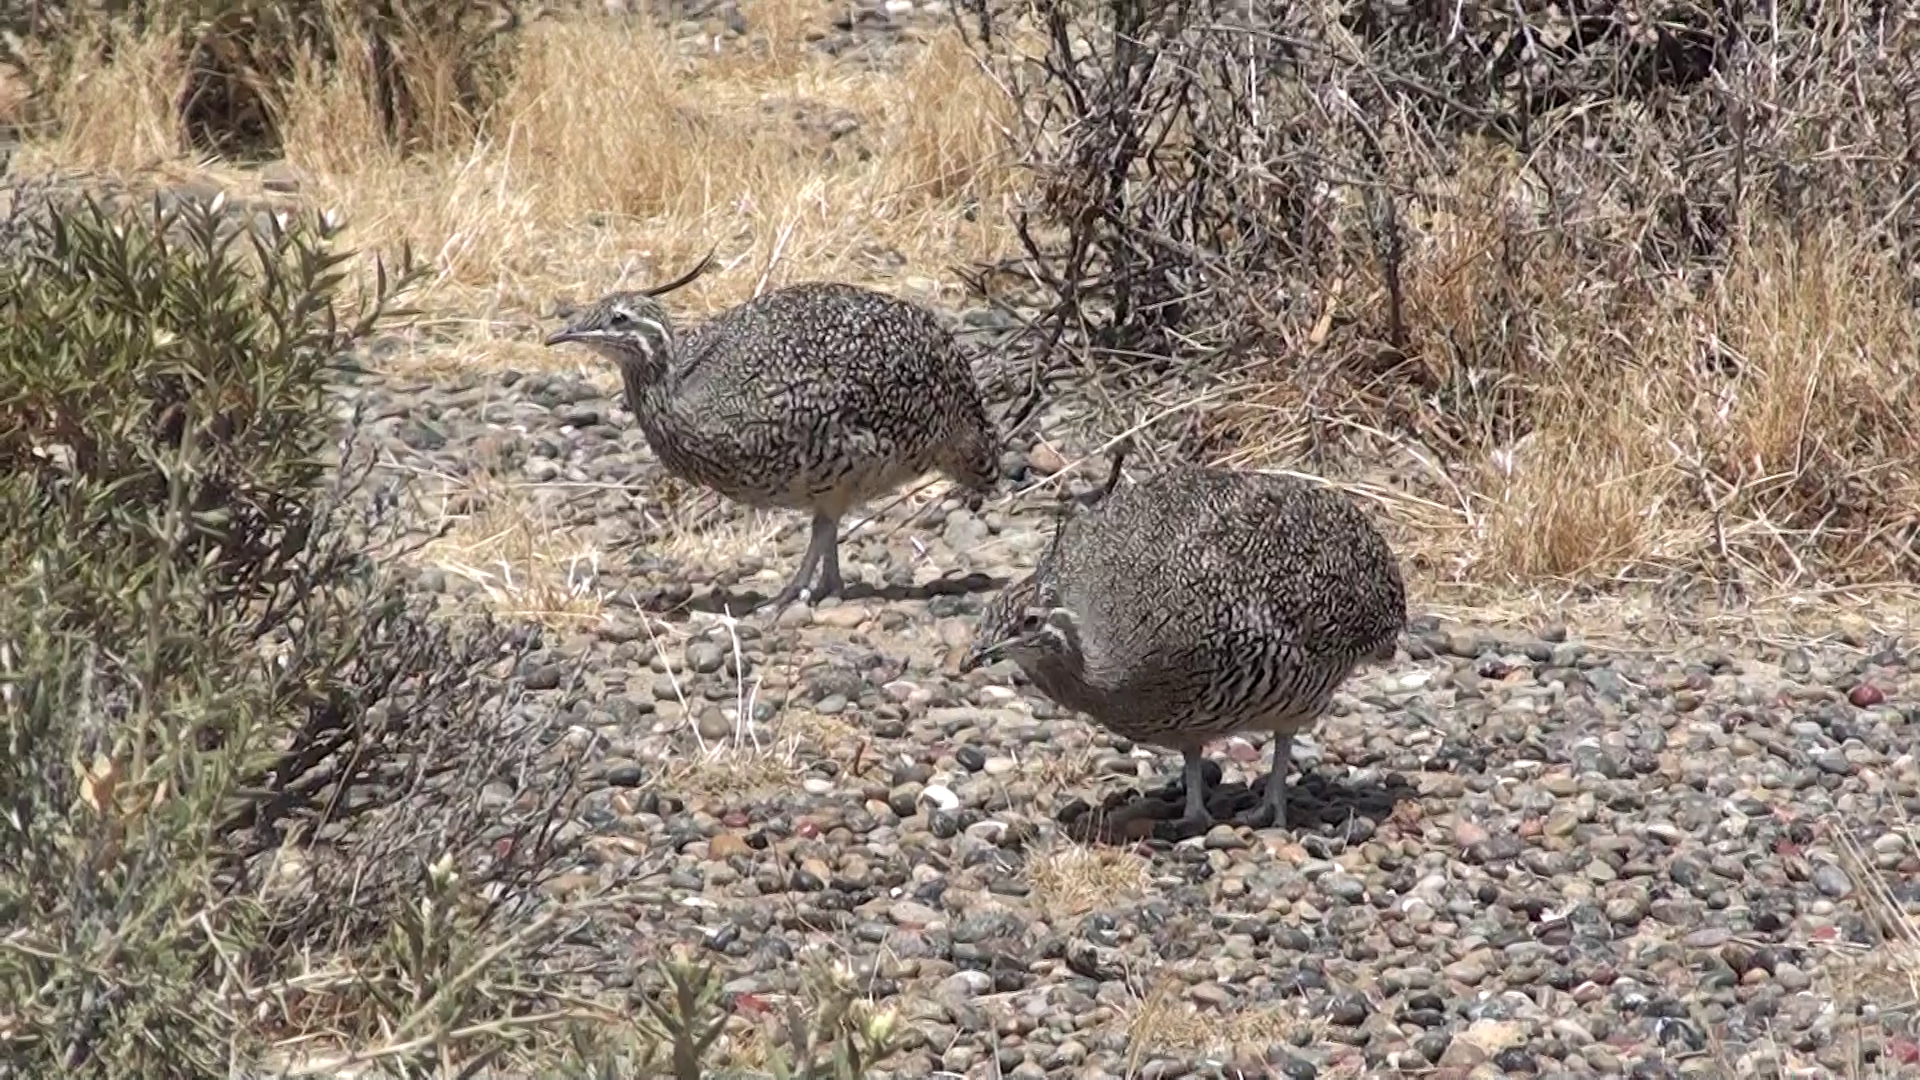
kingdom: Animalia
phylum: Chordata
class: Aves
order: Tinamiformes
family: Tinamidae
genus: Eudromia
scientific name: Eudromia elegans
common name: Elegant crested tinamou
